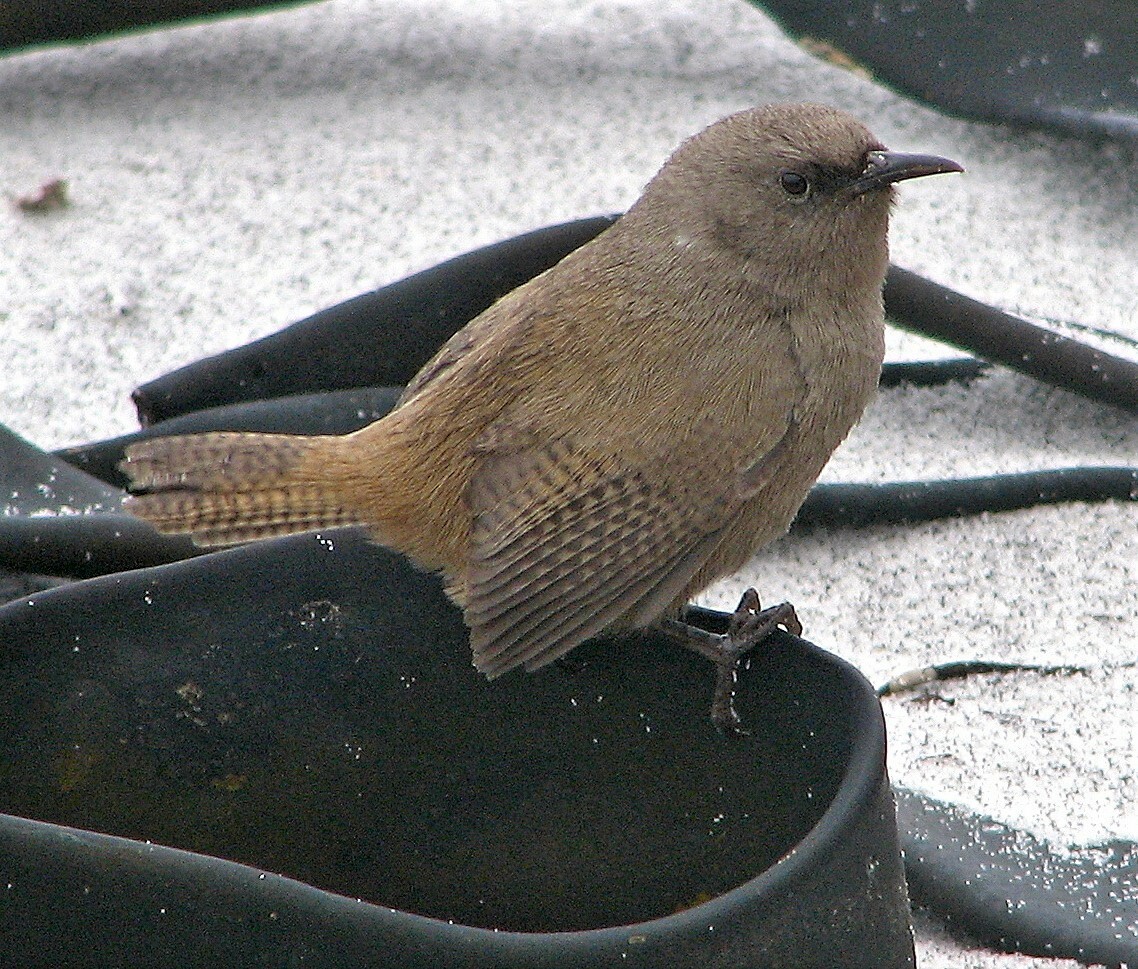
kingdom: Animalia
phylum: Chordata
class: Aves
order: Passeriformes
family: Troglodytidae
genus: Troglodytes
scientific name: Troglodytes cobbi
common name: Cobb's wren
